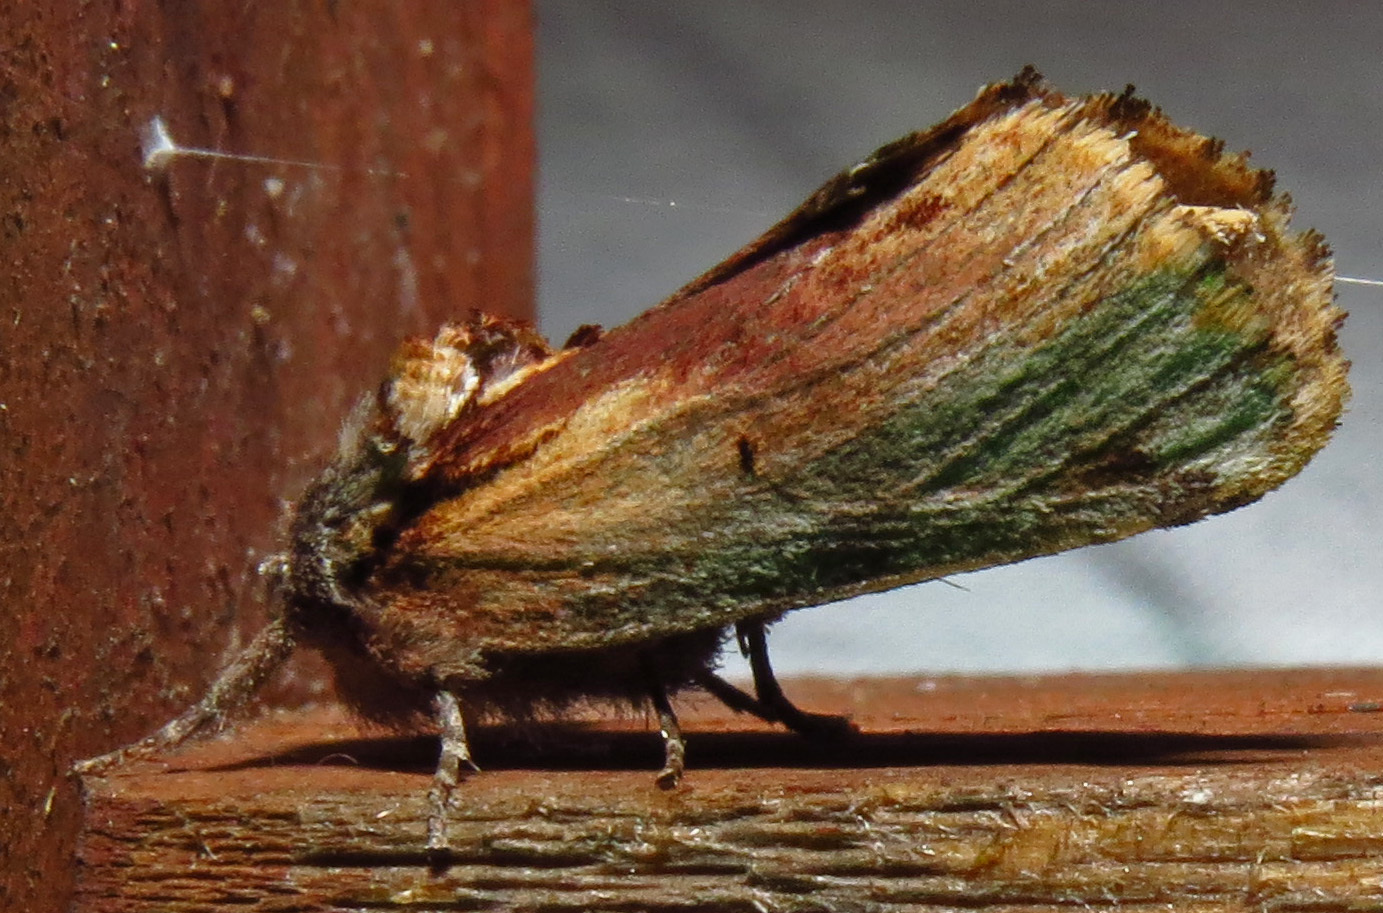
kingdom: Animalia
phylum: Arthropoda
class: Insecta
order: Lepidoptera
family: Notodontidae
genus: Schizura
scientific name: Schizura
